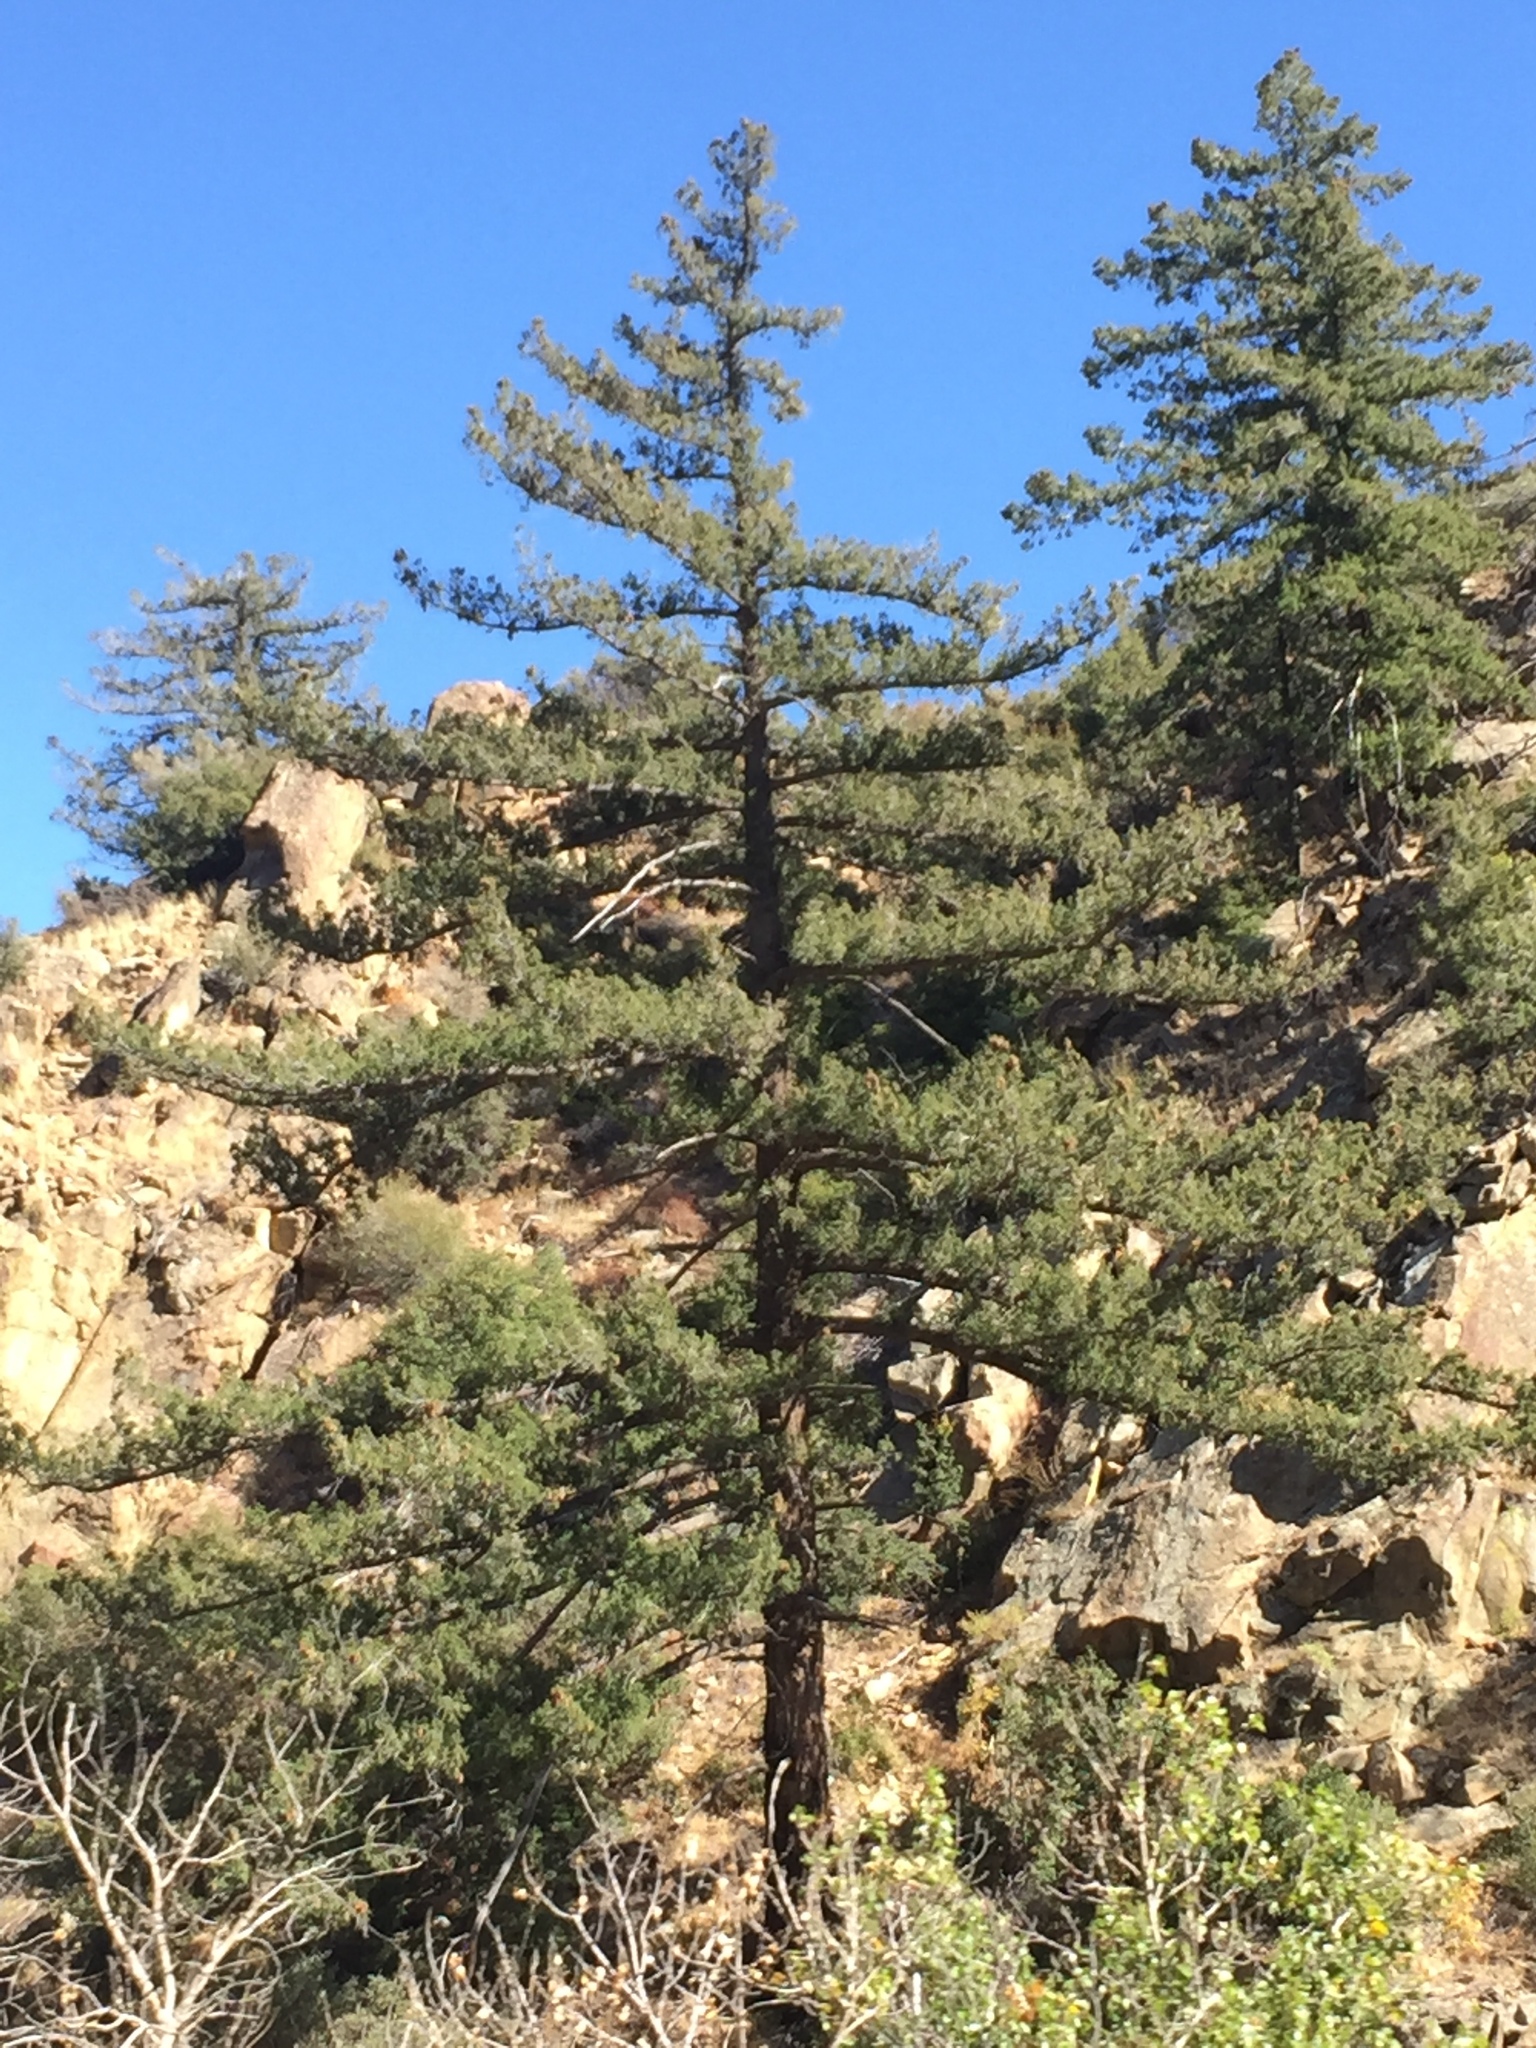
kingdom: Plantae
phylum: Tracheophyta
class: Pinopsida
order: Pinales
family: Pinaceae
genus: Pseudotsuga
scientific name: Pseudotsuga macrocarpa
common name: Big-cone douglas-fir
